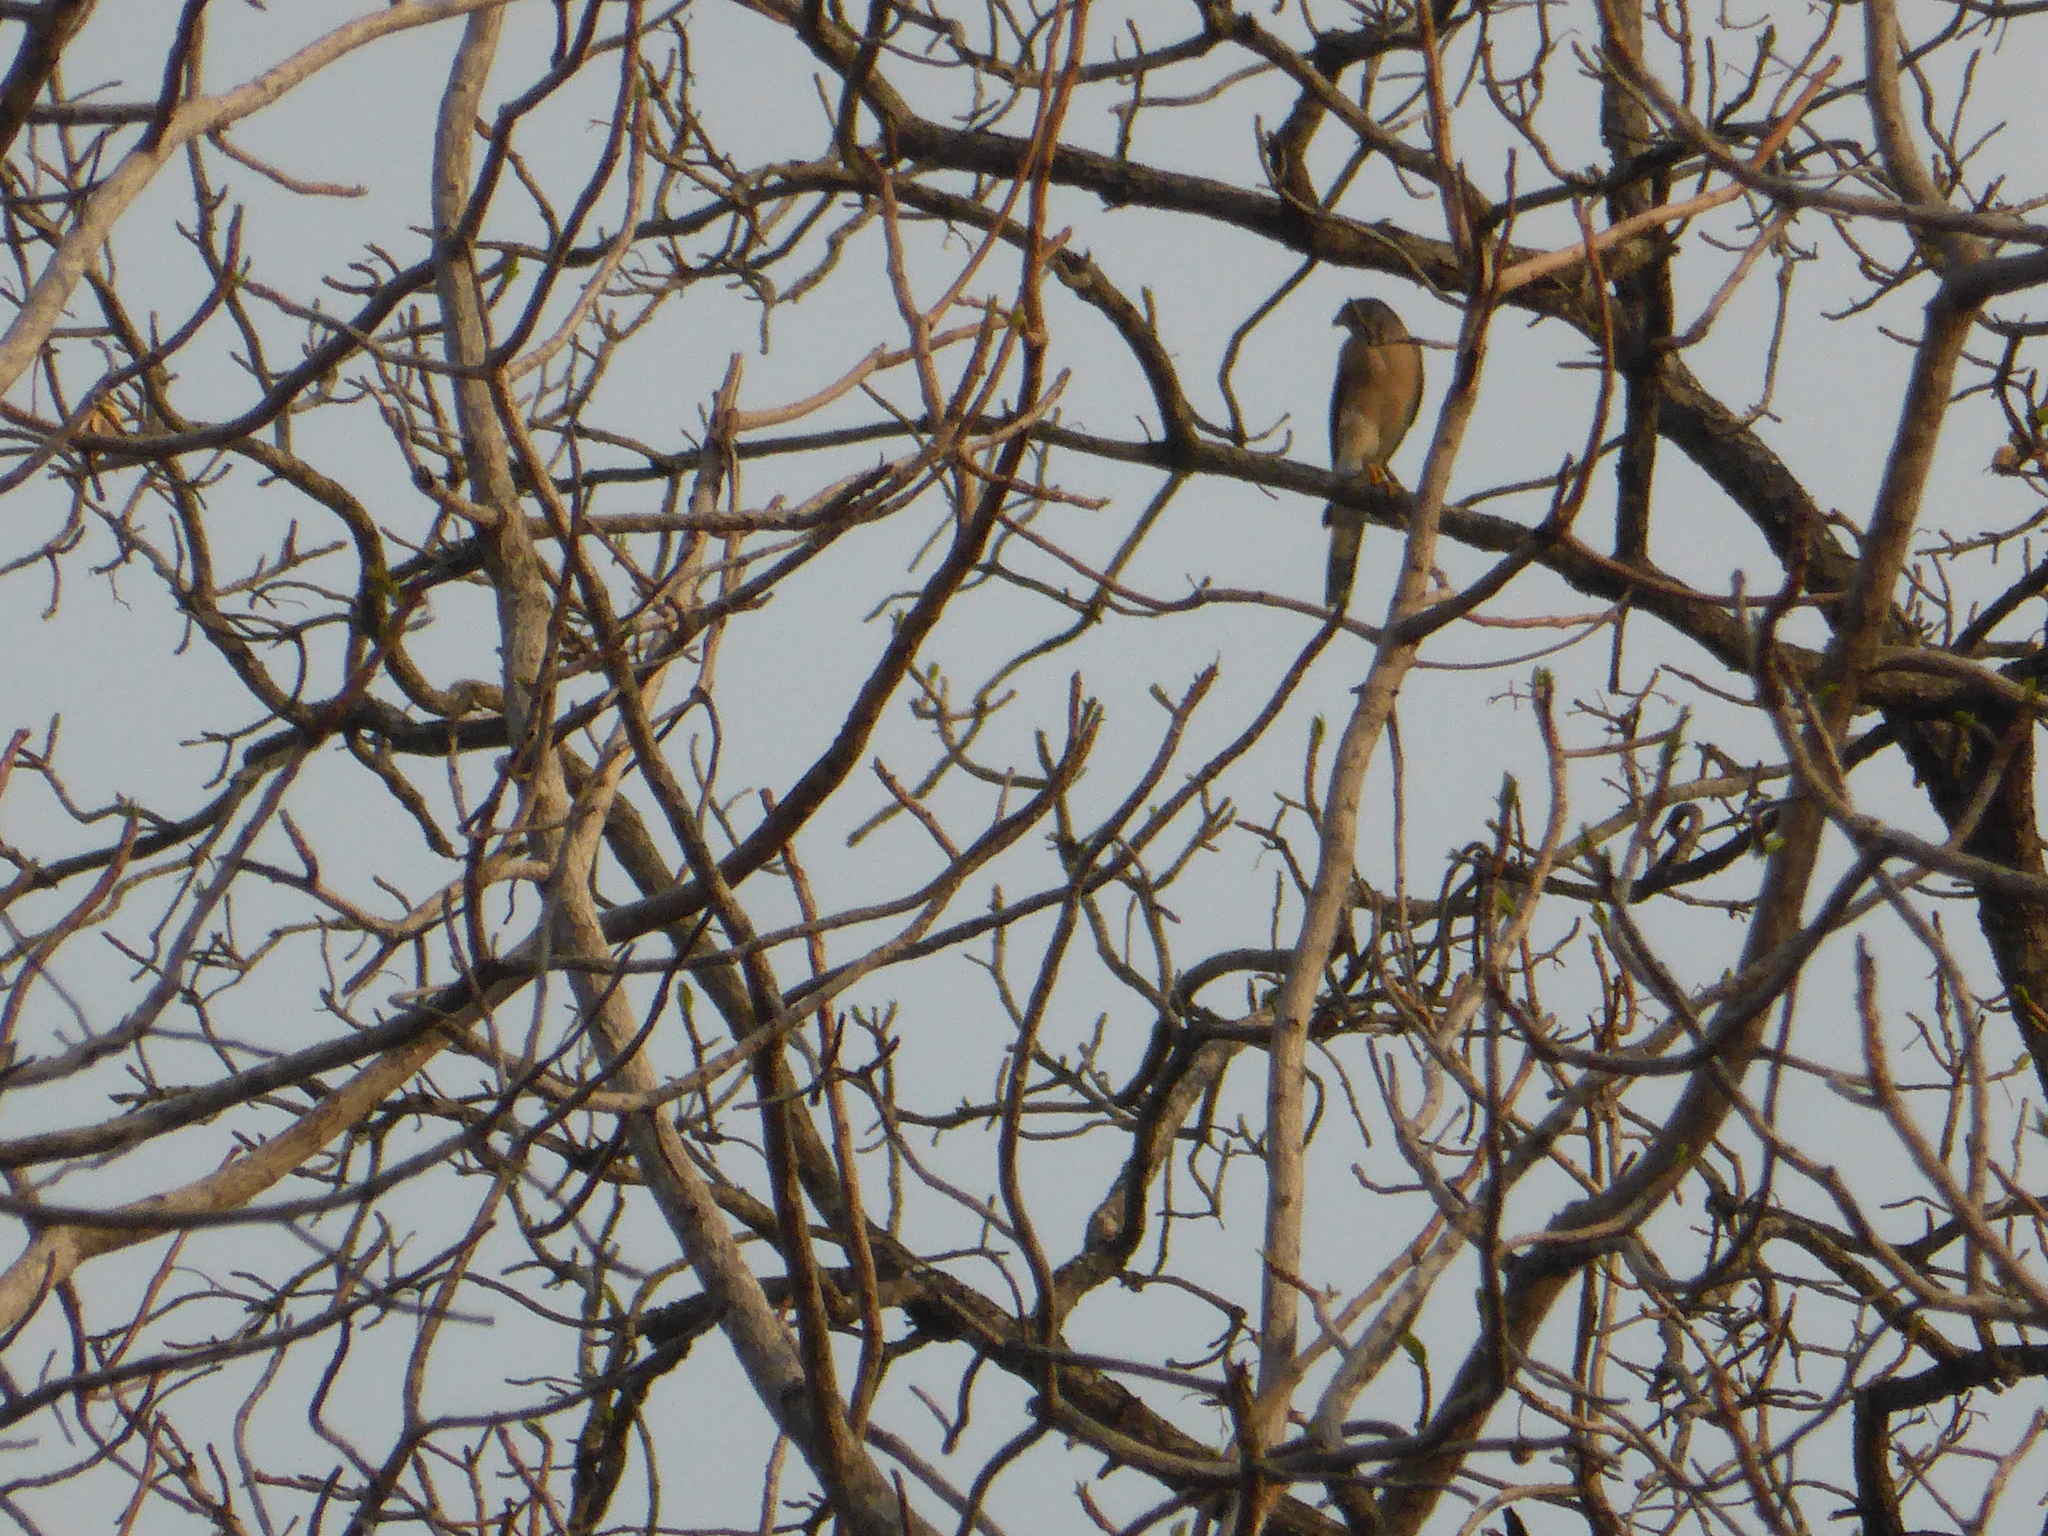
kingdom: Animalia
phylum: Chordata
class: Aves
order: Accipitriformes
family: Accipitridae
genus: Accipiter
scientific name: Accipiter badius
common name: Shikra
